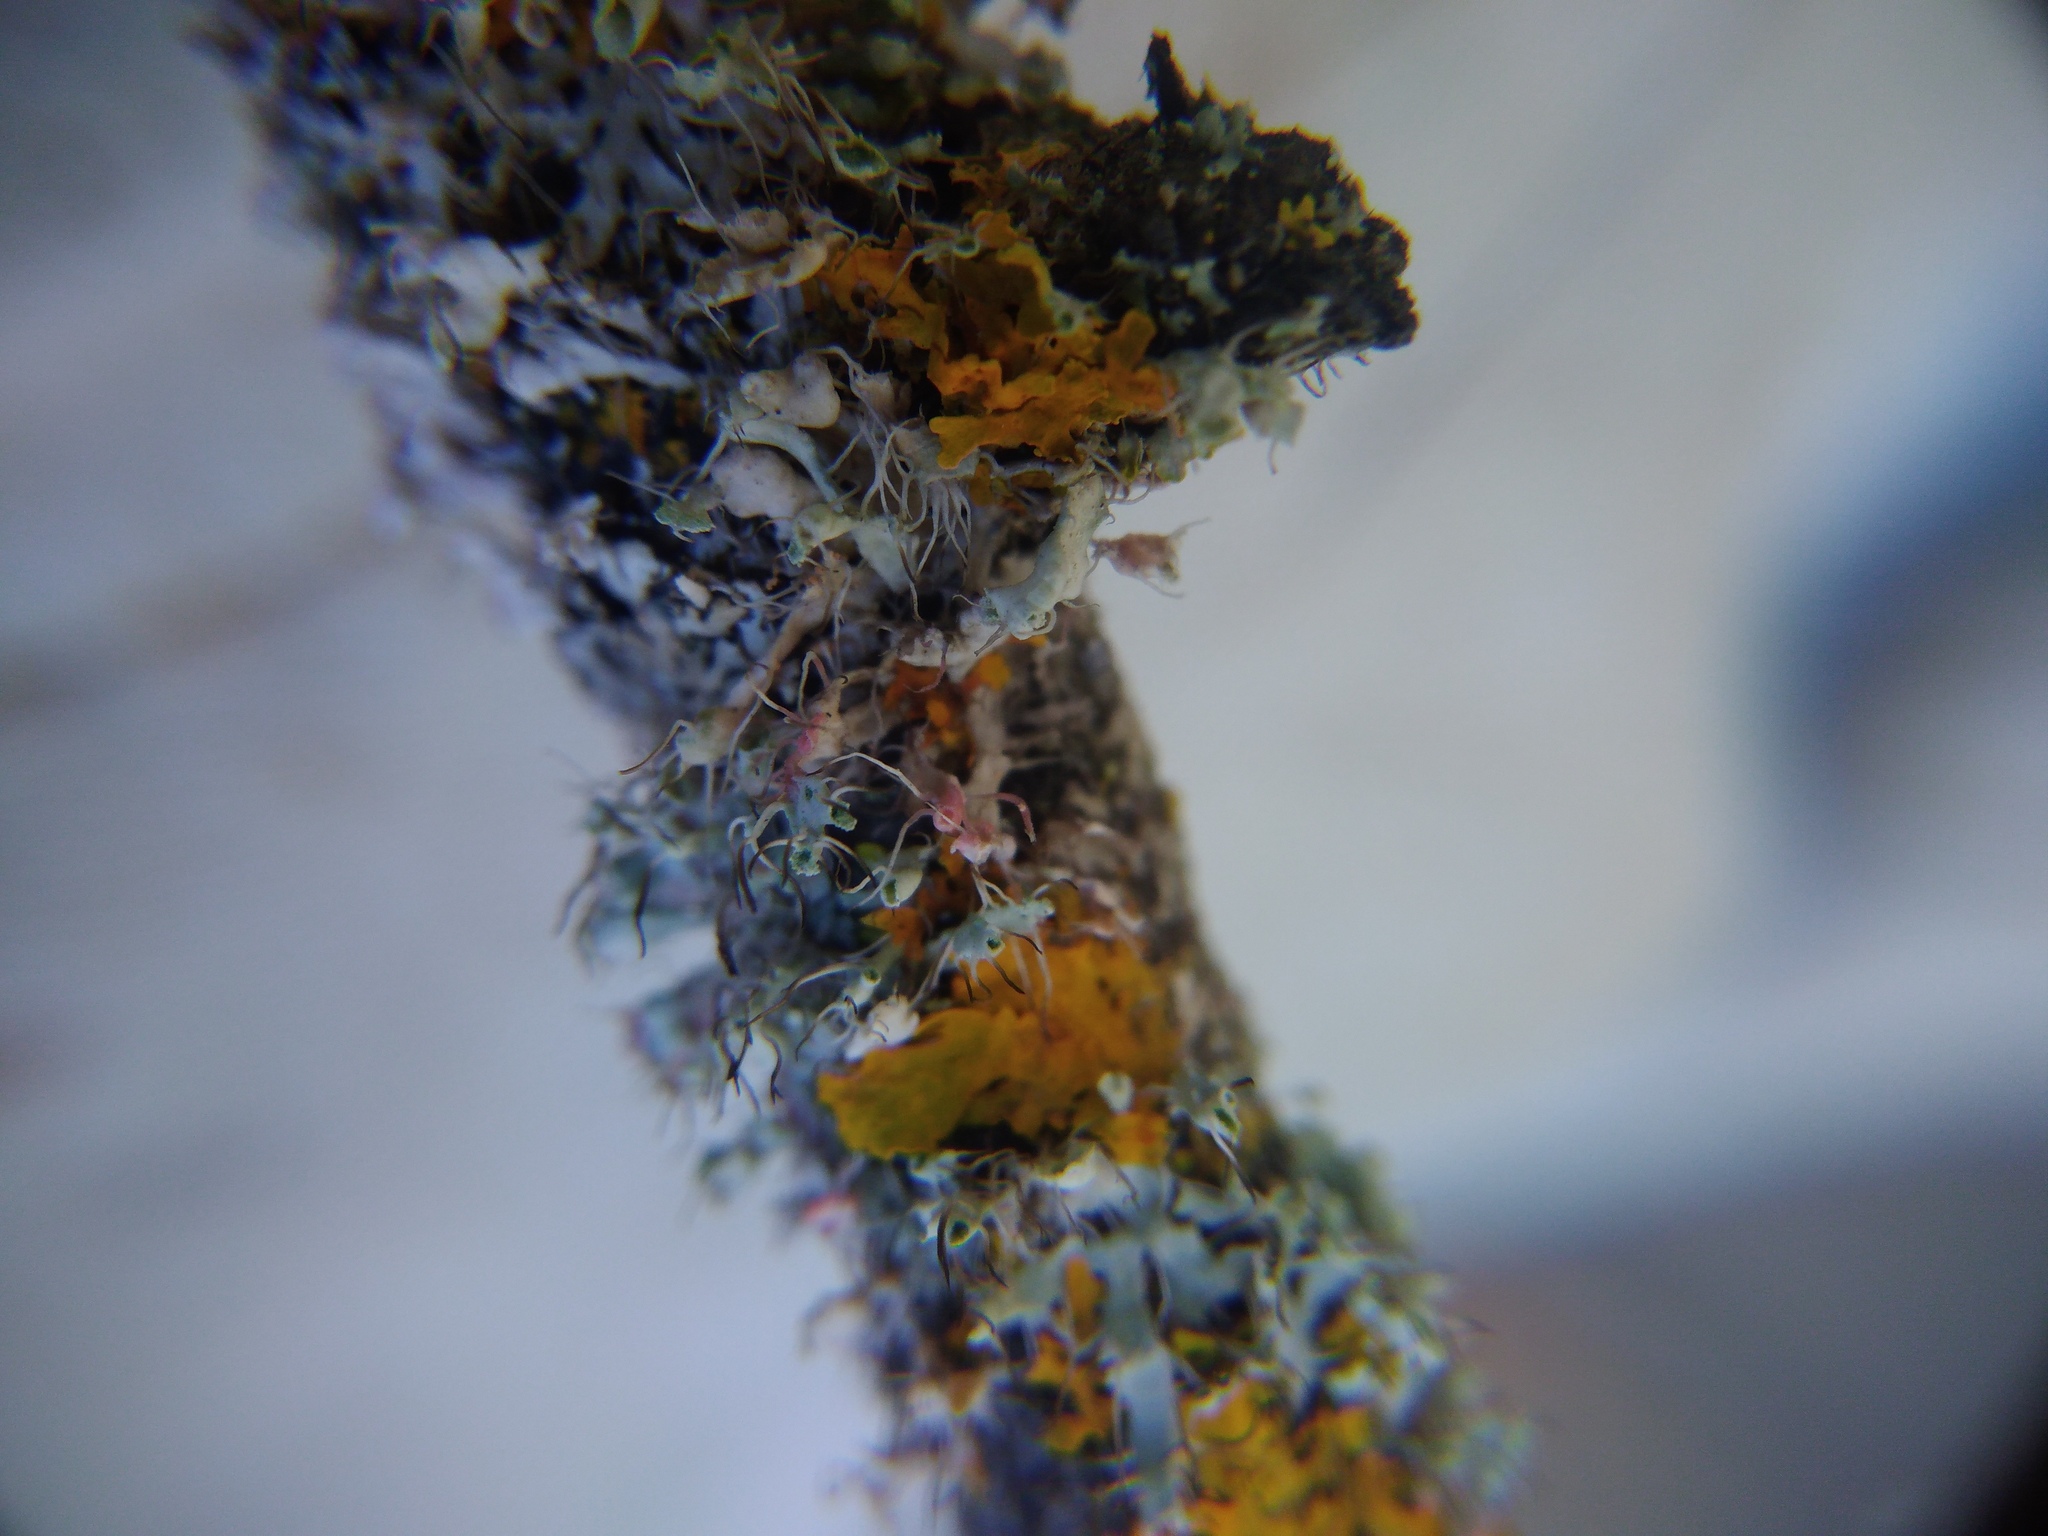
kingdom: Fungi
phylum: Basidiomycota
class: Agaricomycetes
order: Corticiales
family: Corticiaceae
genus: Laetisaria
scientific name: Laetisaria lichenicola
